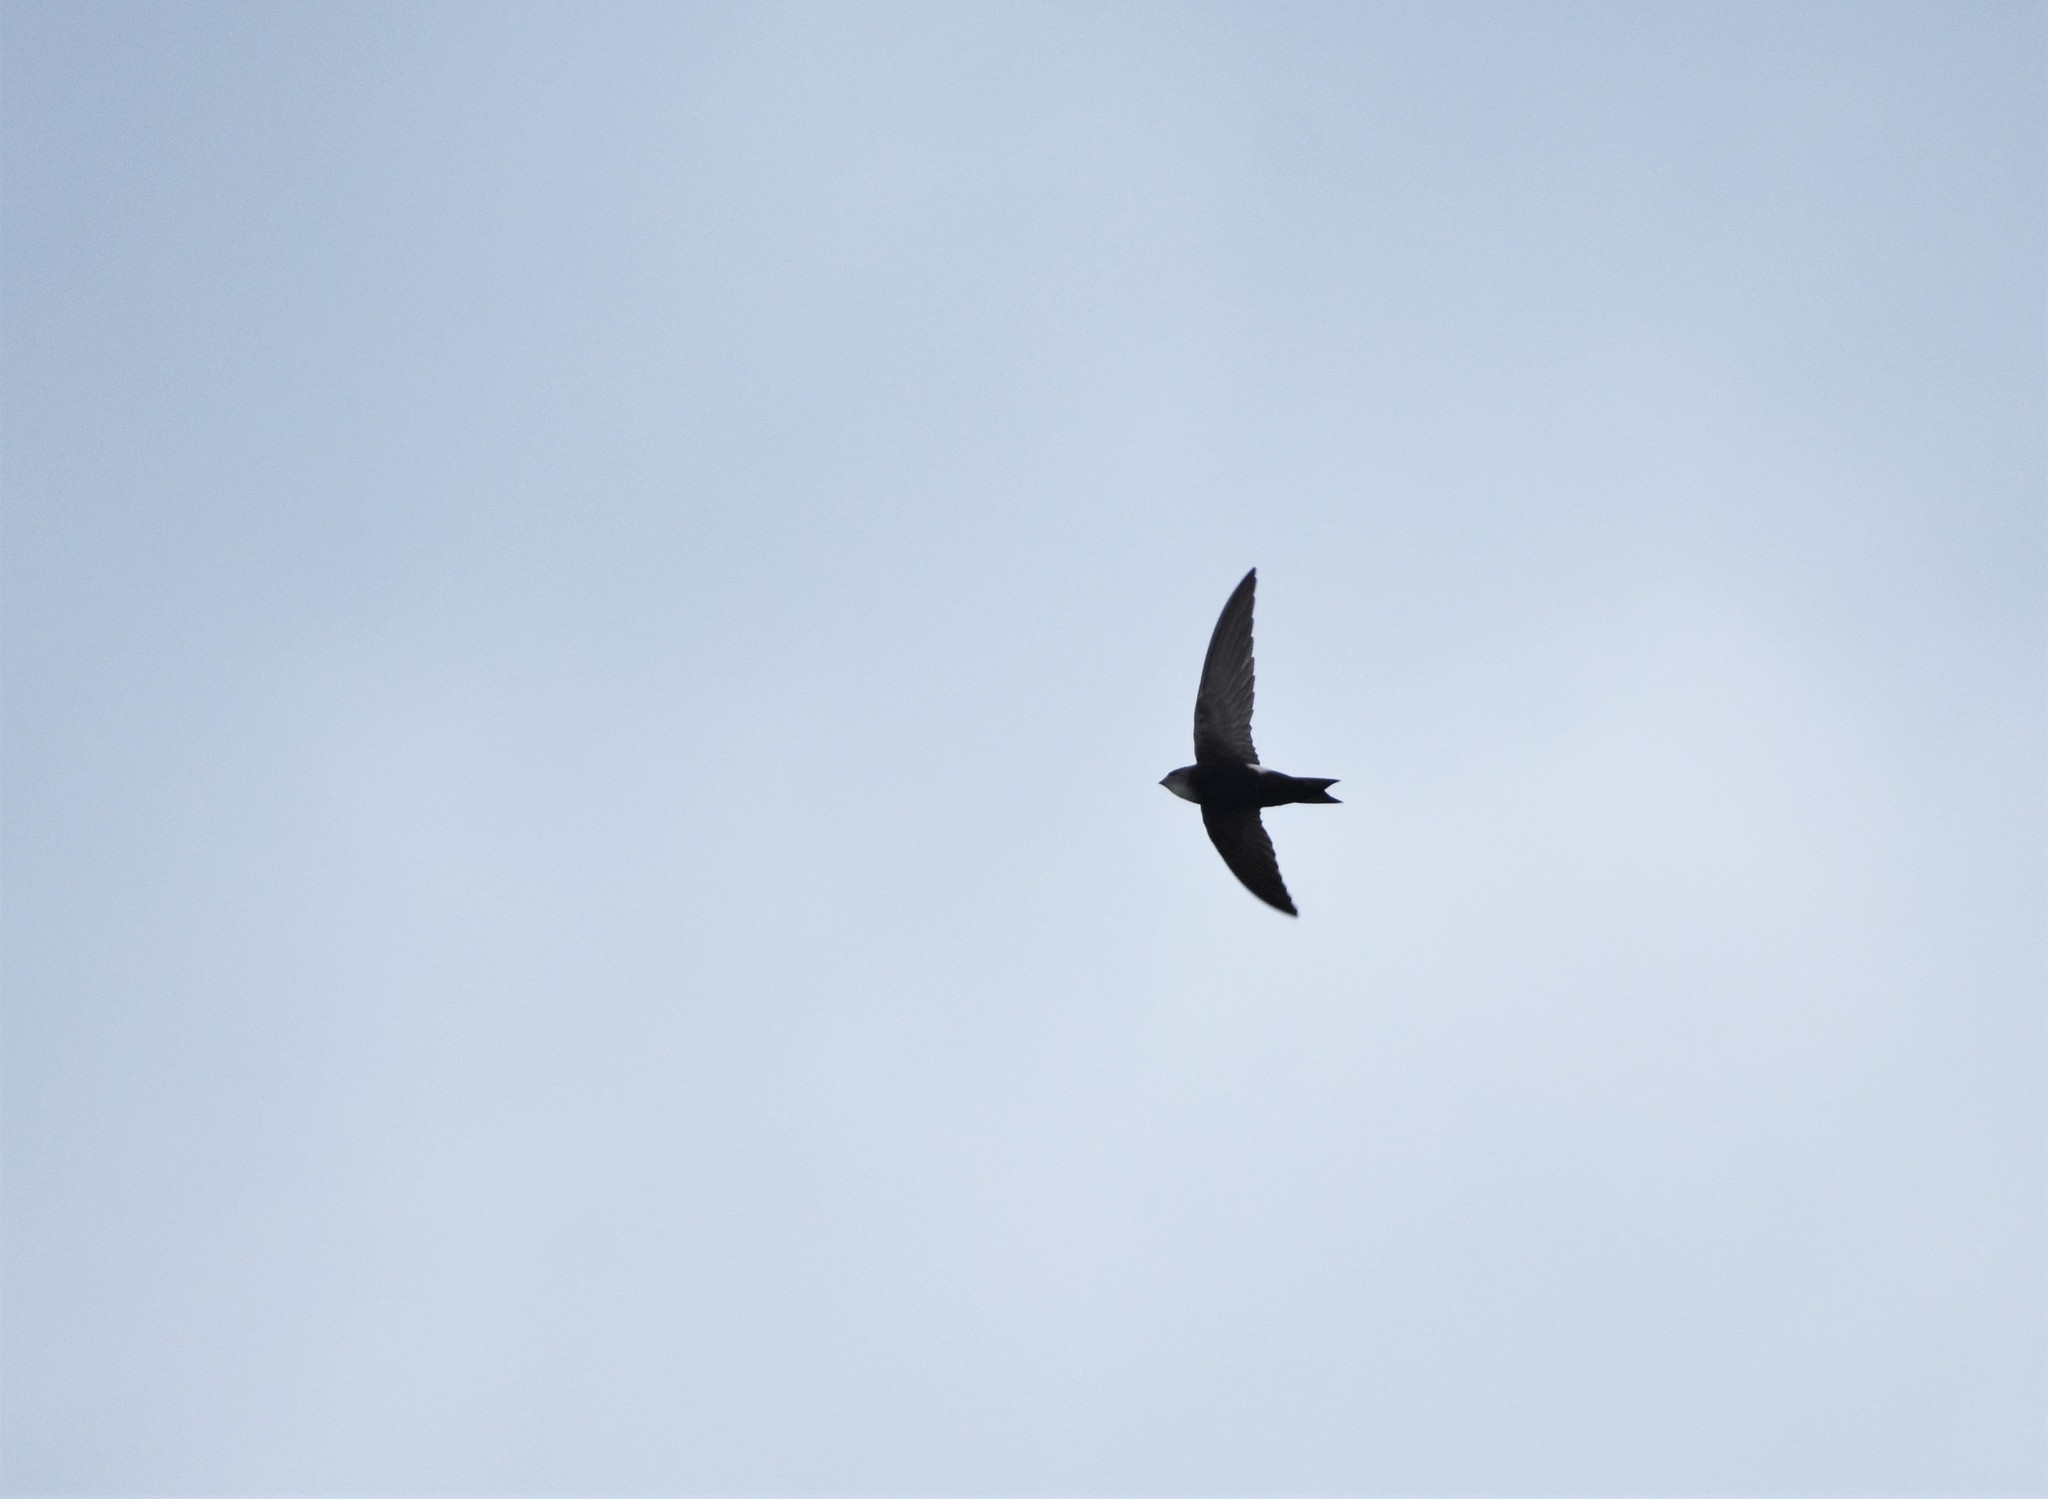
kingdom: Animalia
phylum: Chordata
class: Aves
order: Apodiformes
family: Apodidae
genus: Apus
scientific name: Apus horus
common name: Horus swift
